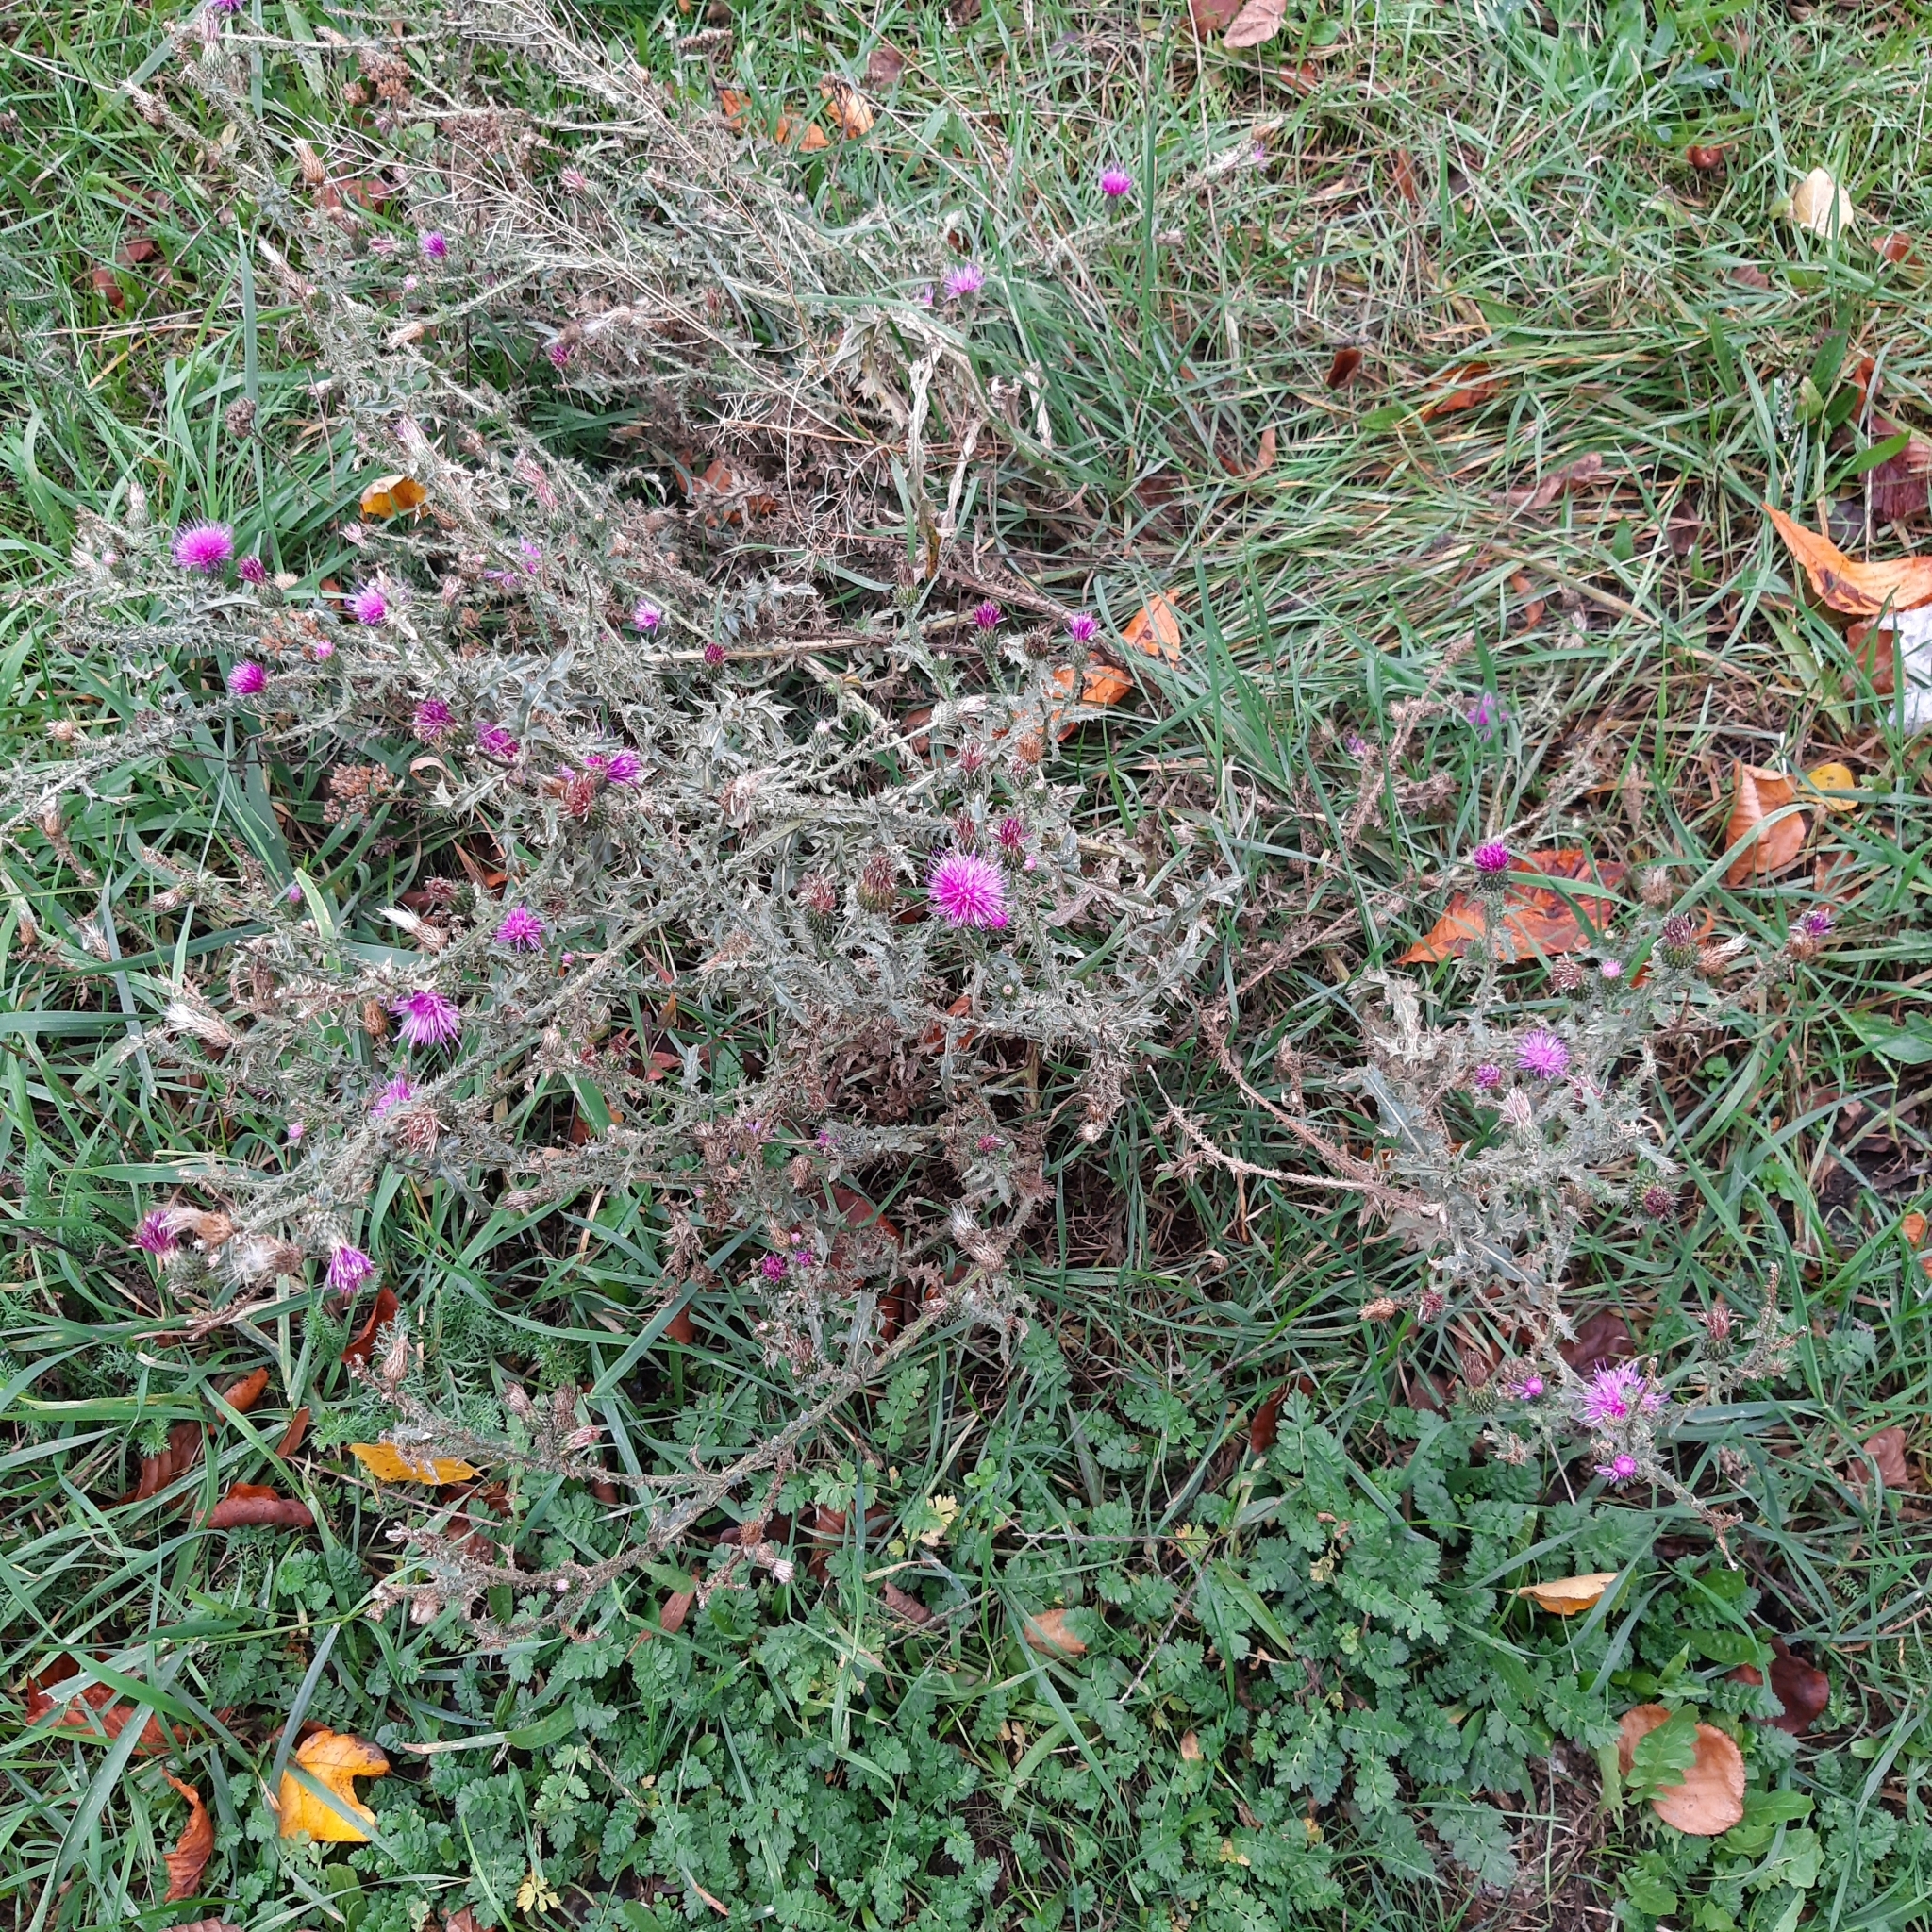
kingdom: Plantae
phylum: Tracheophyta
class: Magnoliopsida
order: Asterales
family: Asteraceae
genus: Carduus
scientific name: Carduus acanthoides
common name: Plumeless thistle
